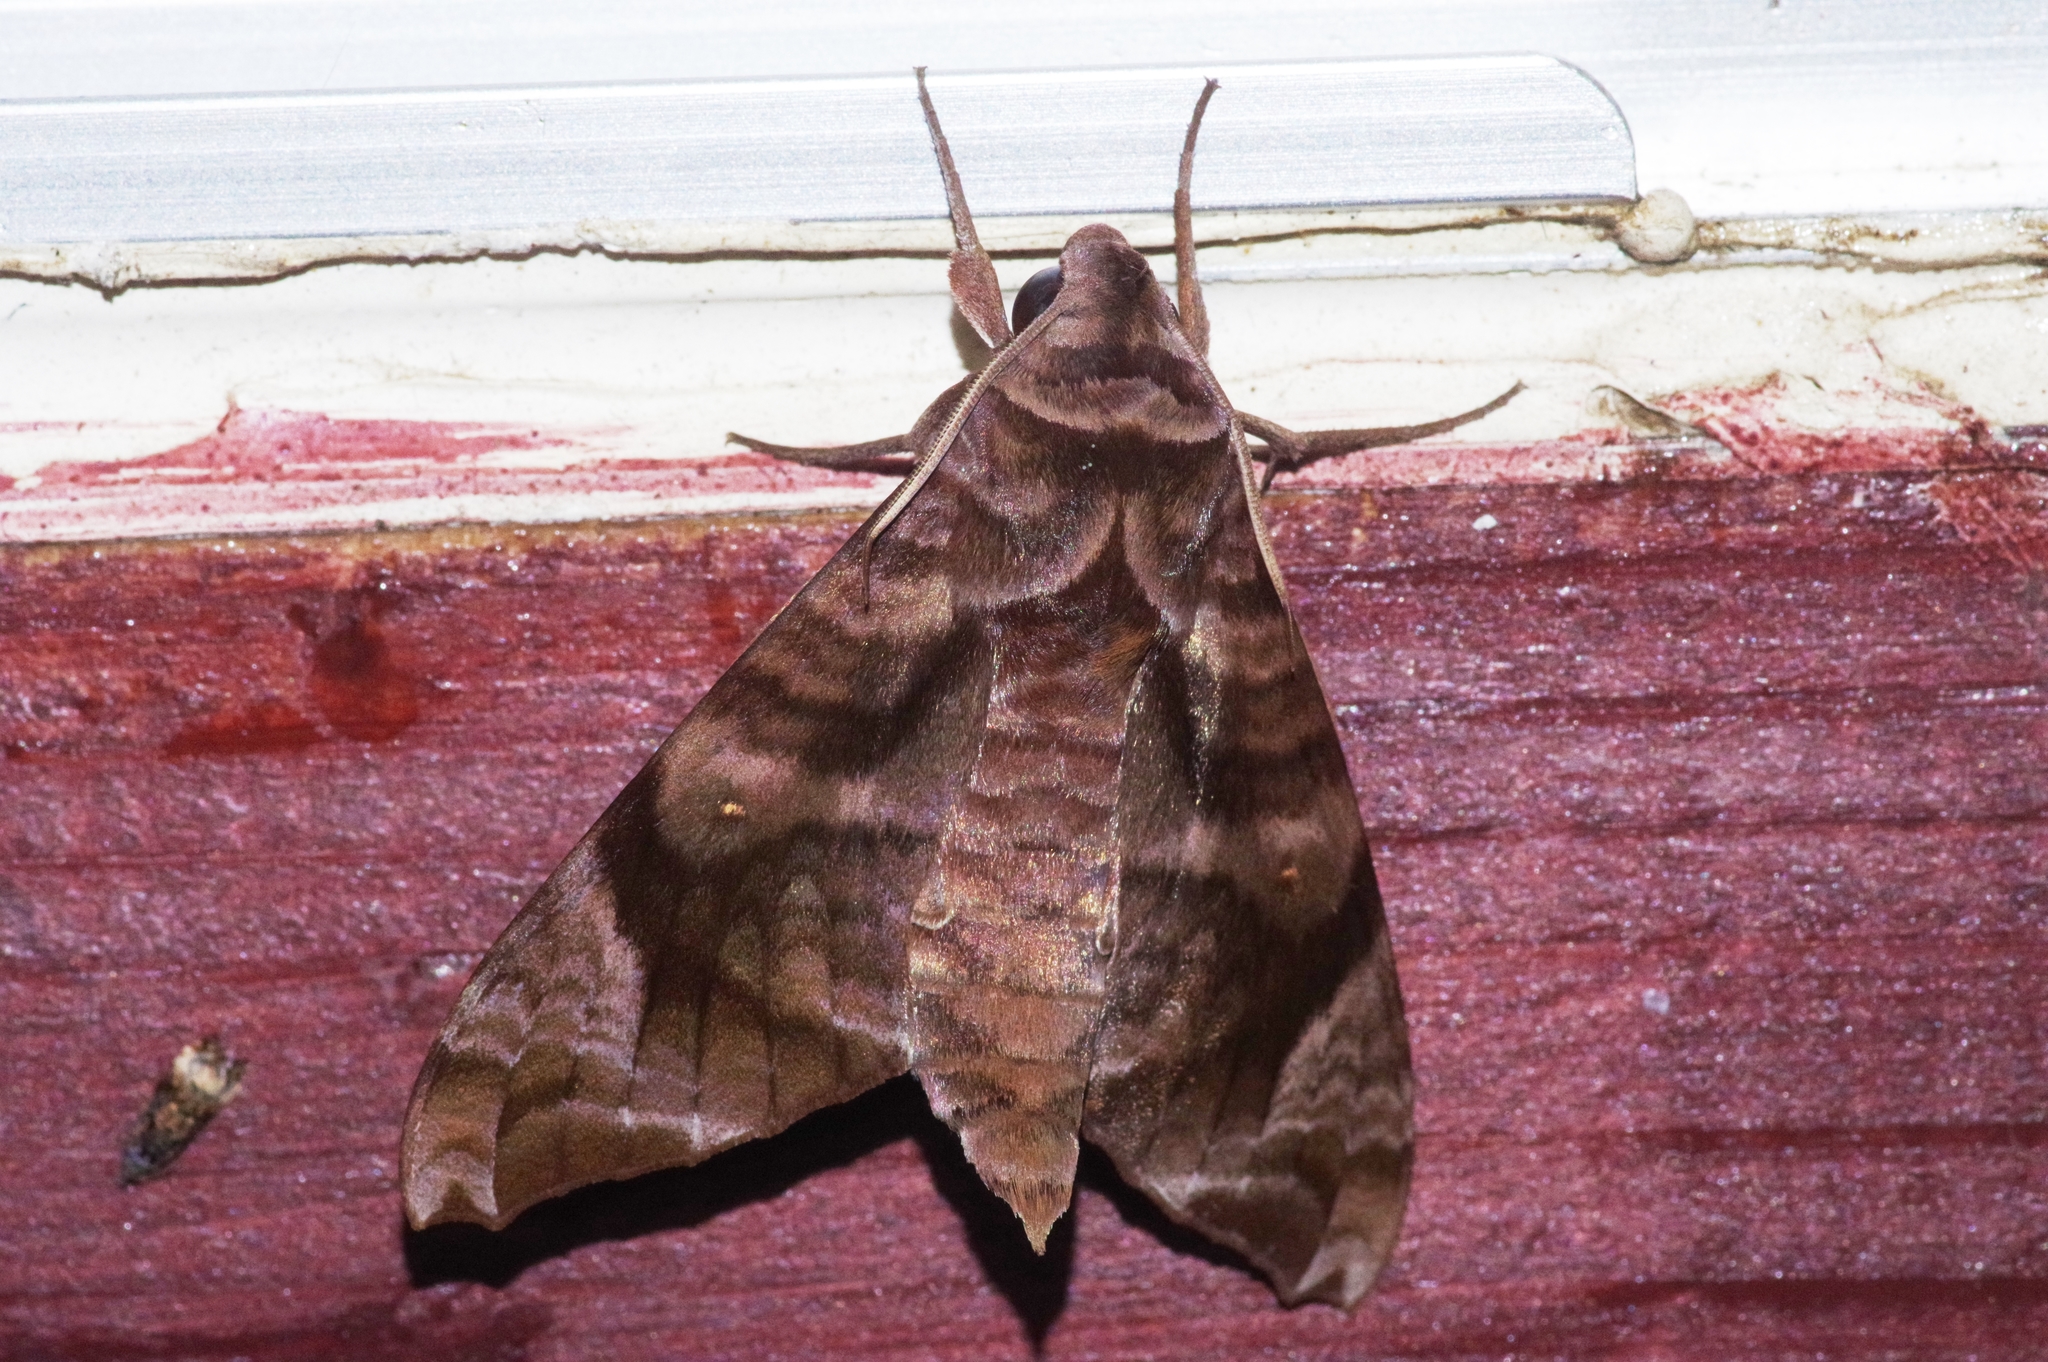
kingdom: Animalia
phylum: Arthropoda
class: Insecta
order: Lepidoptera
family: Sphingidae
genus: Acosmeryx
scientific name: Acosmeryx castanea
